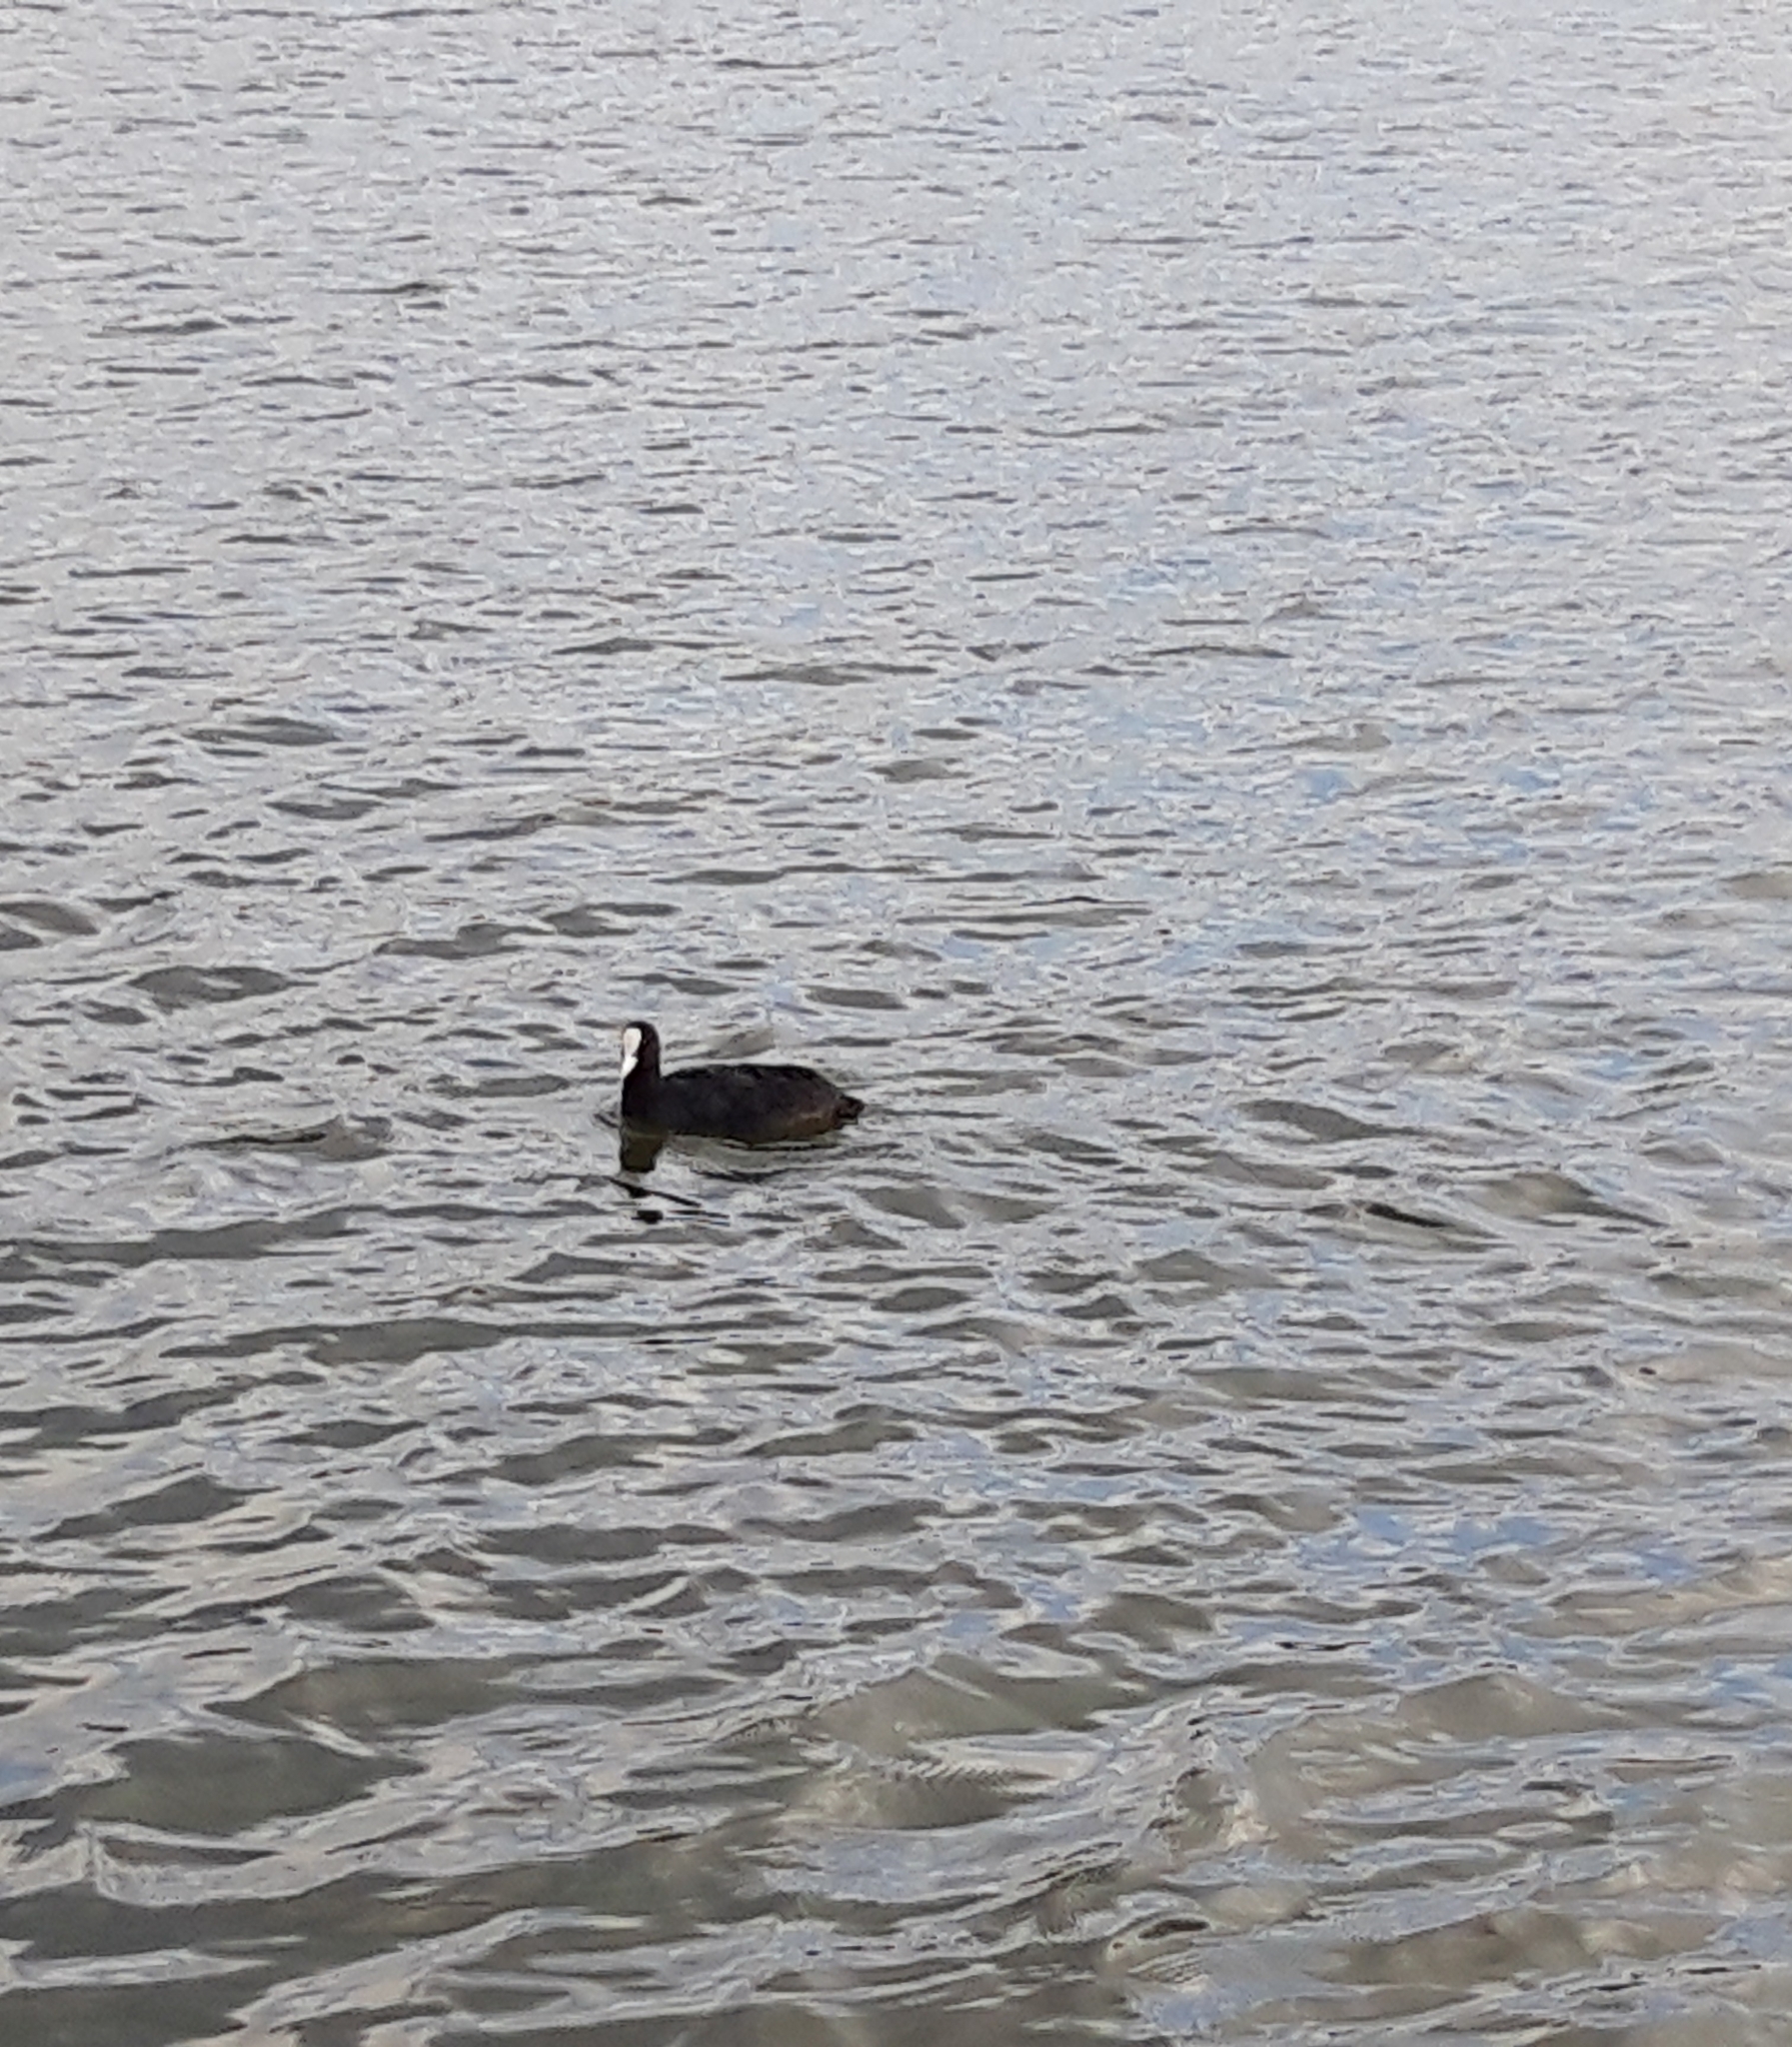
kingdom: Animalia
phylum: Chordata
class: Aves
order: Gruiformes
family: Rallidae
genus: Fulica
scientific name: Fulica atra
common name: Eurasian coot
